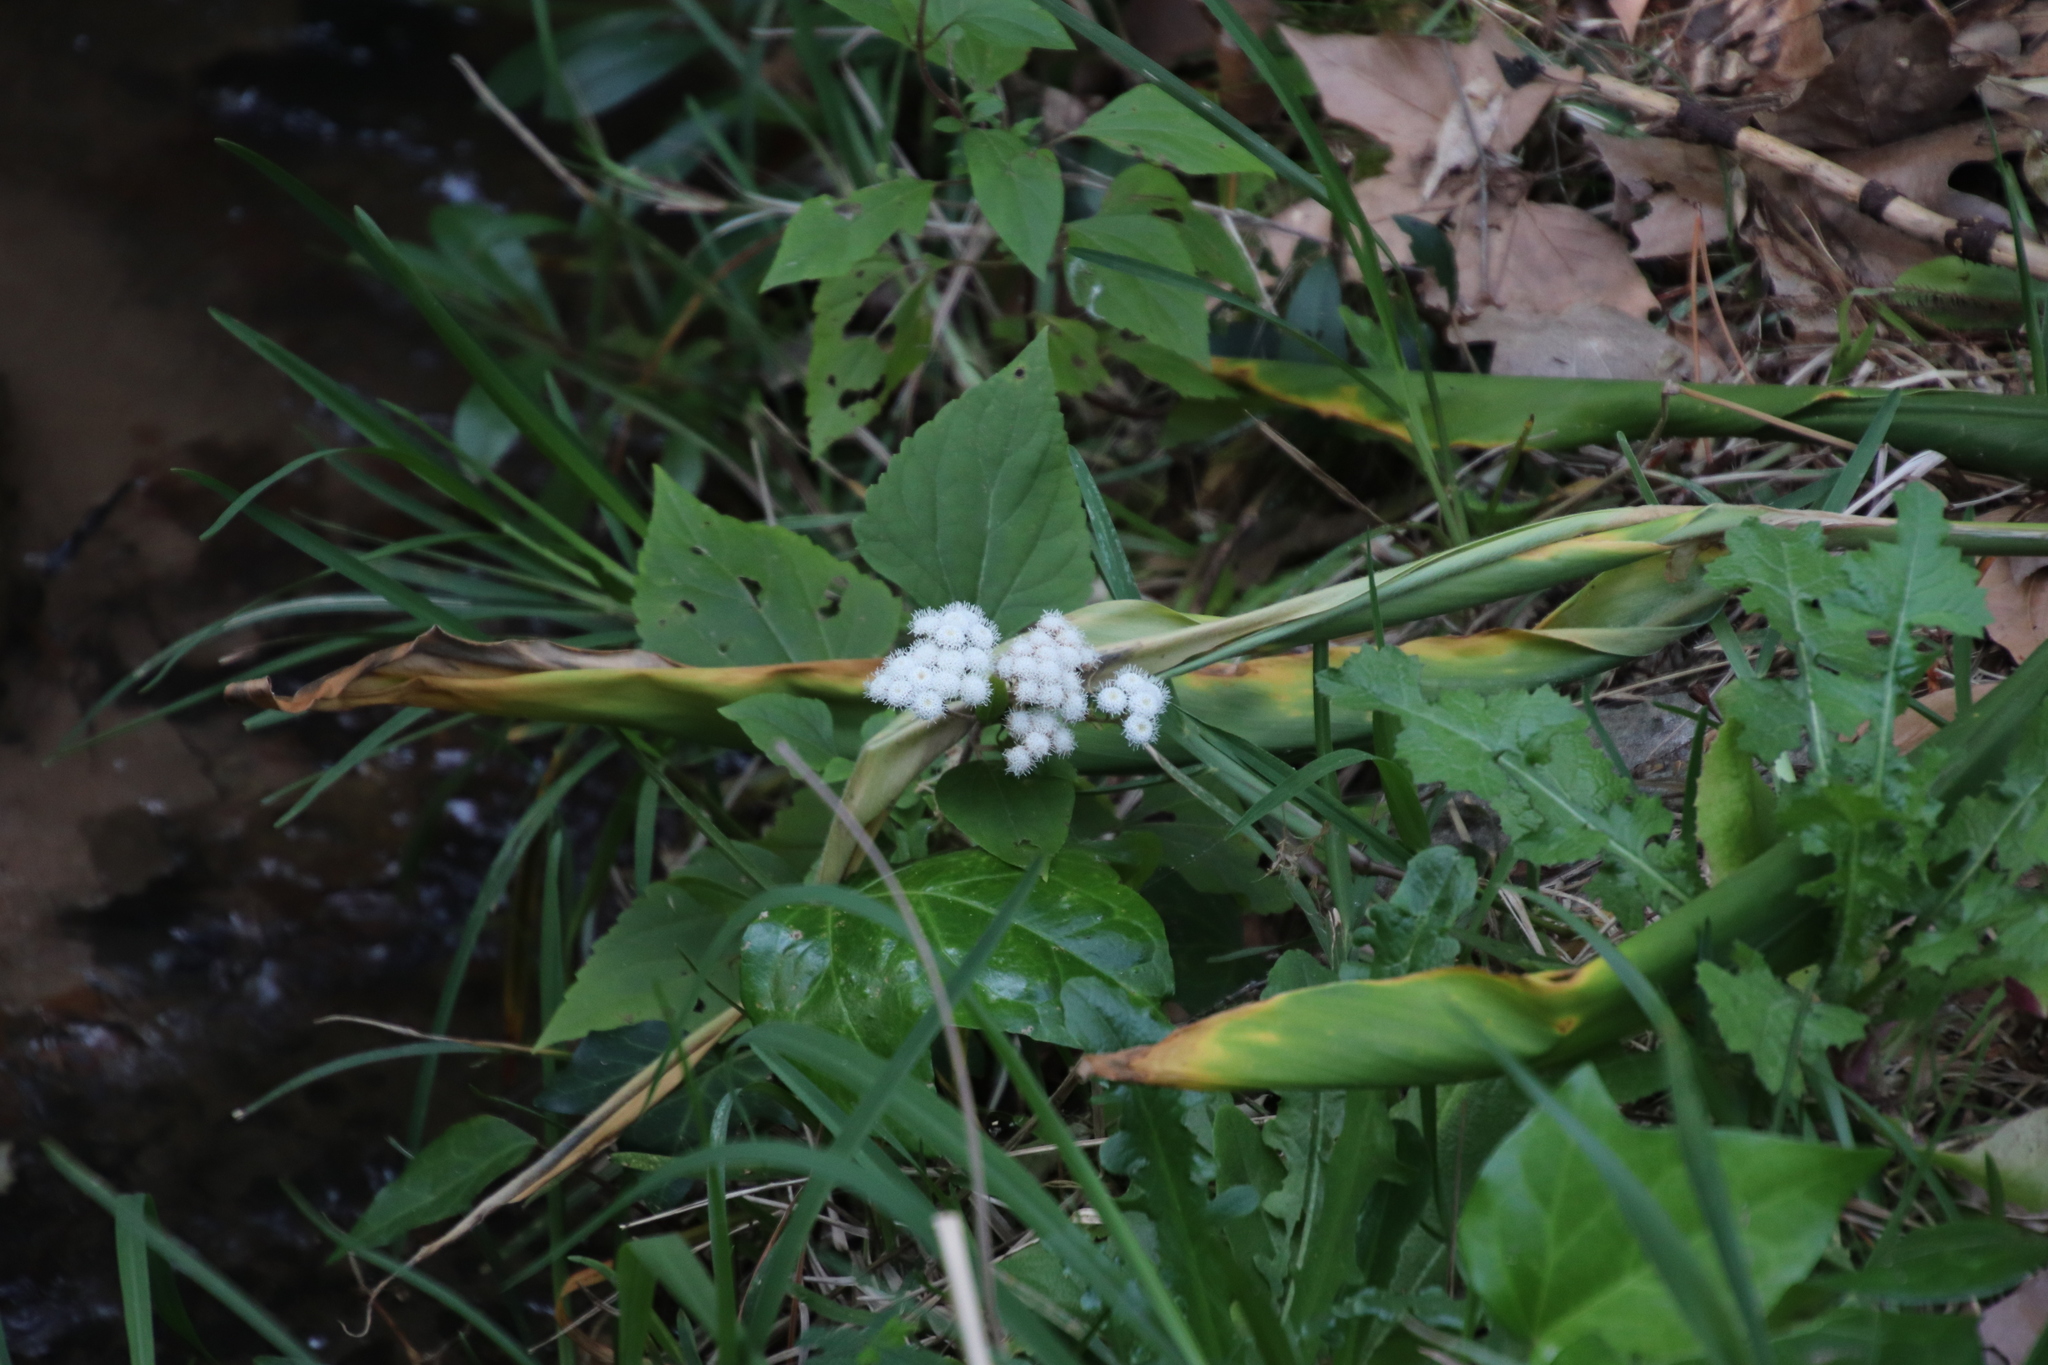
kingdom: Plantae
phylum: Tracheophyta
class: Magnoliopsida
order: Asterales
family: Asteraceae
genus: Ageratina
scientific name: Ageratina adenophora
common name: Sticky snakeroot
